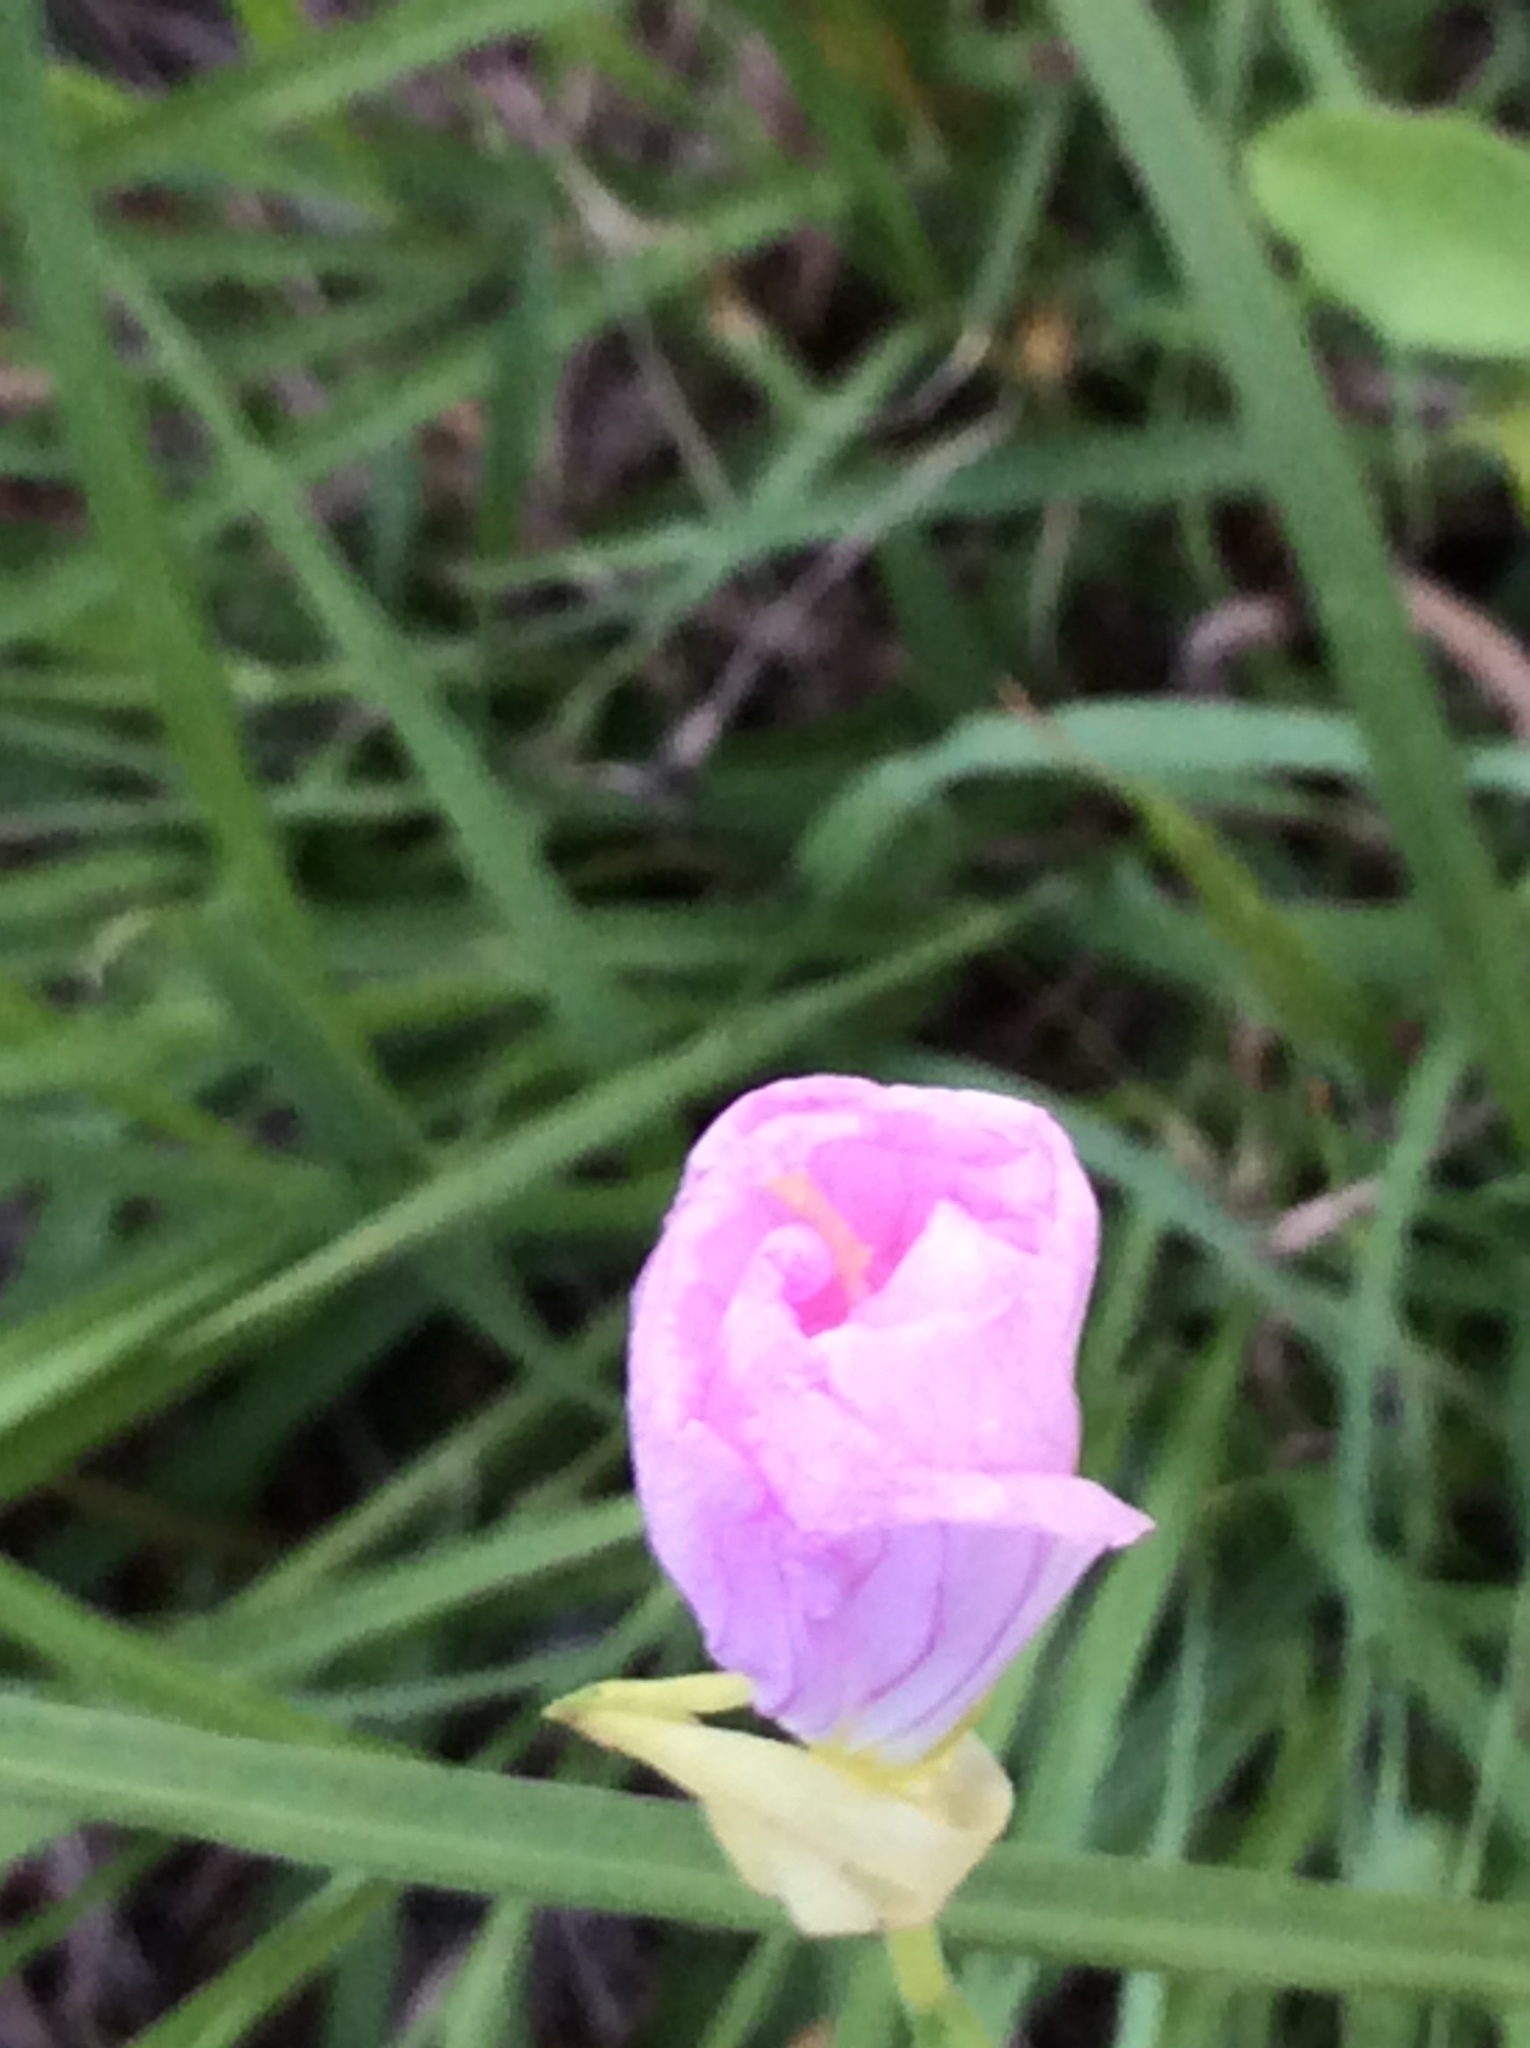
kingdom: Plantae
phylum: Tracheophyta
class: Magnoliopsida
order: Myrtales
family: Onagraceae
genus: Oenothera
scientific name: Oenothera speciosa
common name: White evening-primrose
